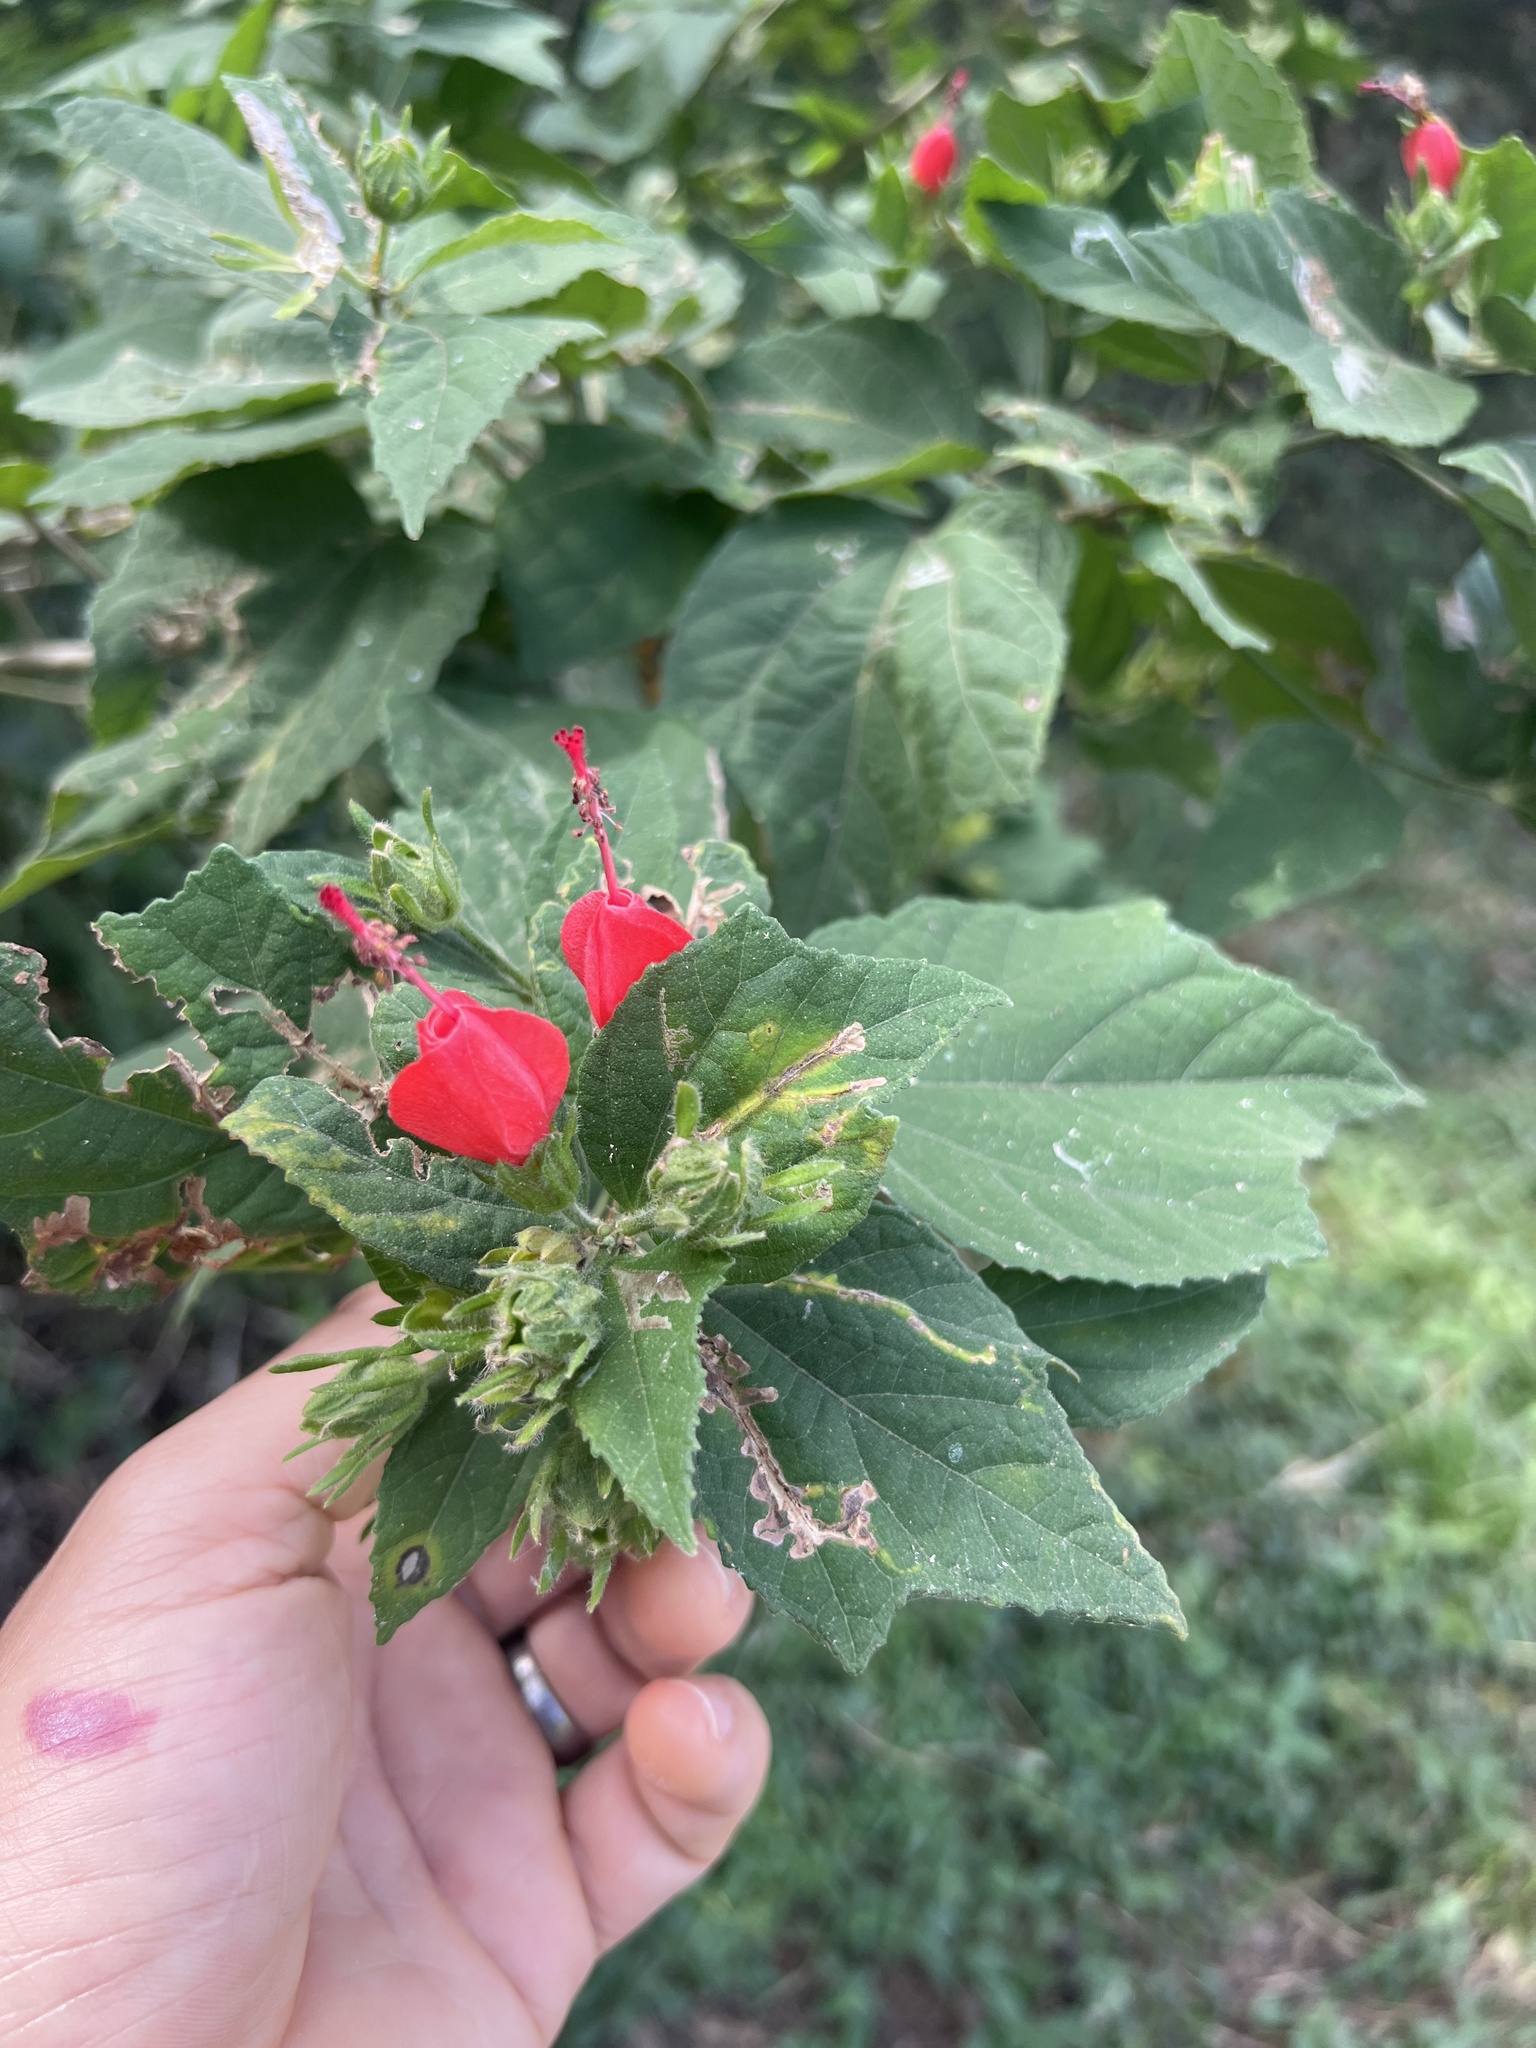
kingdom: Plantae
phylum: Tracheophyta
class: Magnoliopsida
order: Malvales
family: Malvaceae
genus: Malvaviscus
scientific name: Malvaviscus arboreus
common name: Wax mallow
